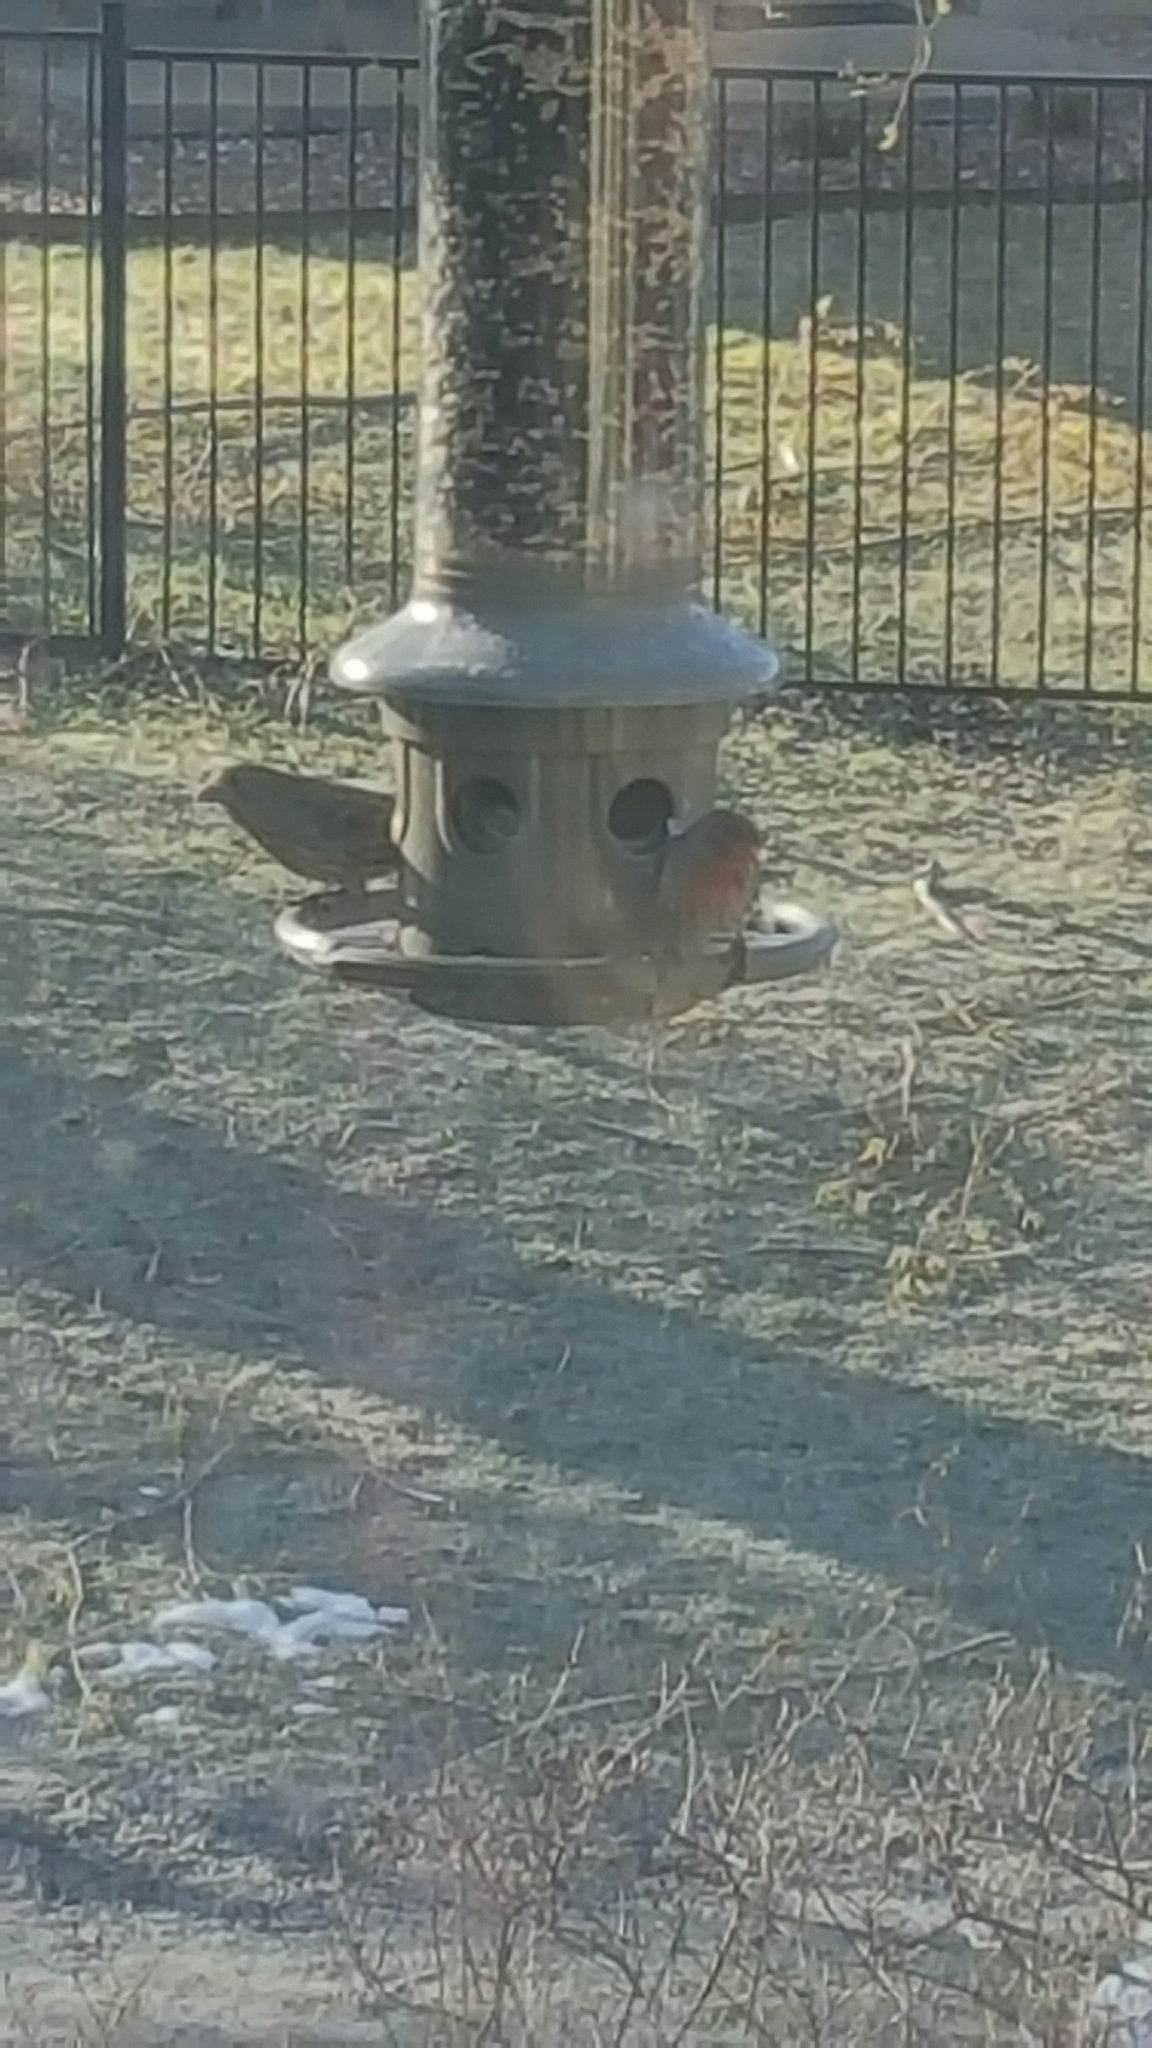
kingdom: Animalia
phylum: Chordata
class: Aves
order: Passeriformes
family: Fringillidae
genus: Haemorhous
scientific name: Haemorhous mexicanus
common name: House finch
